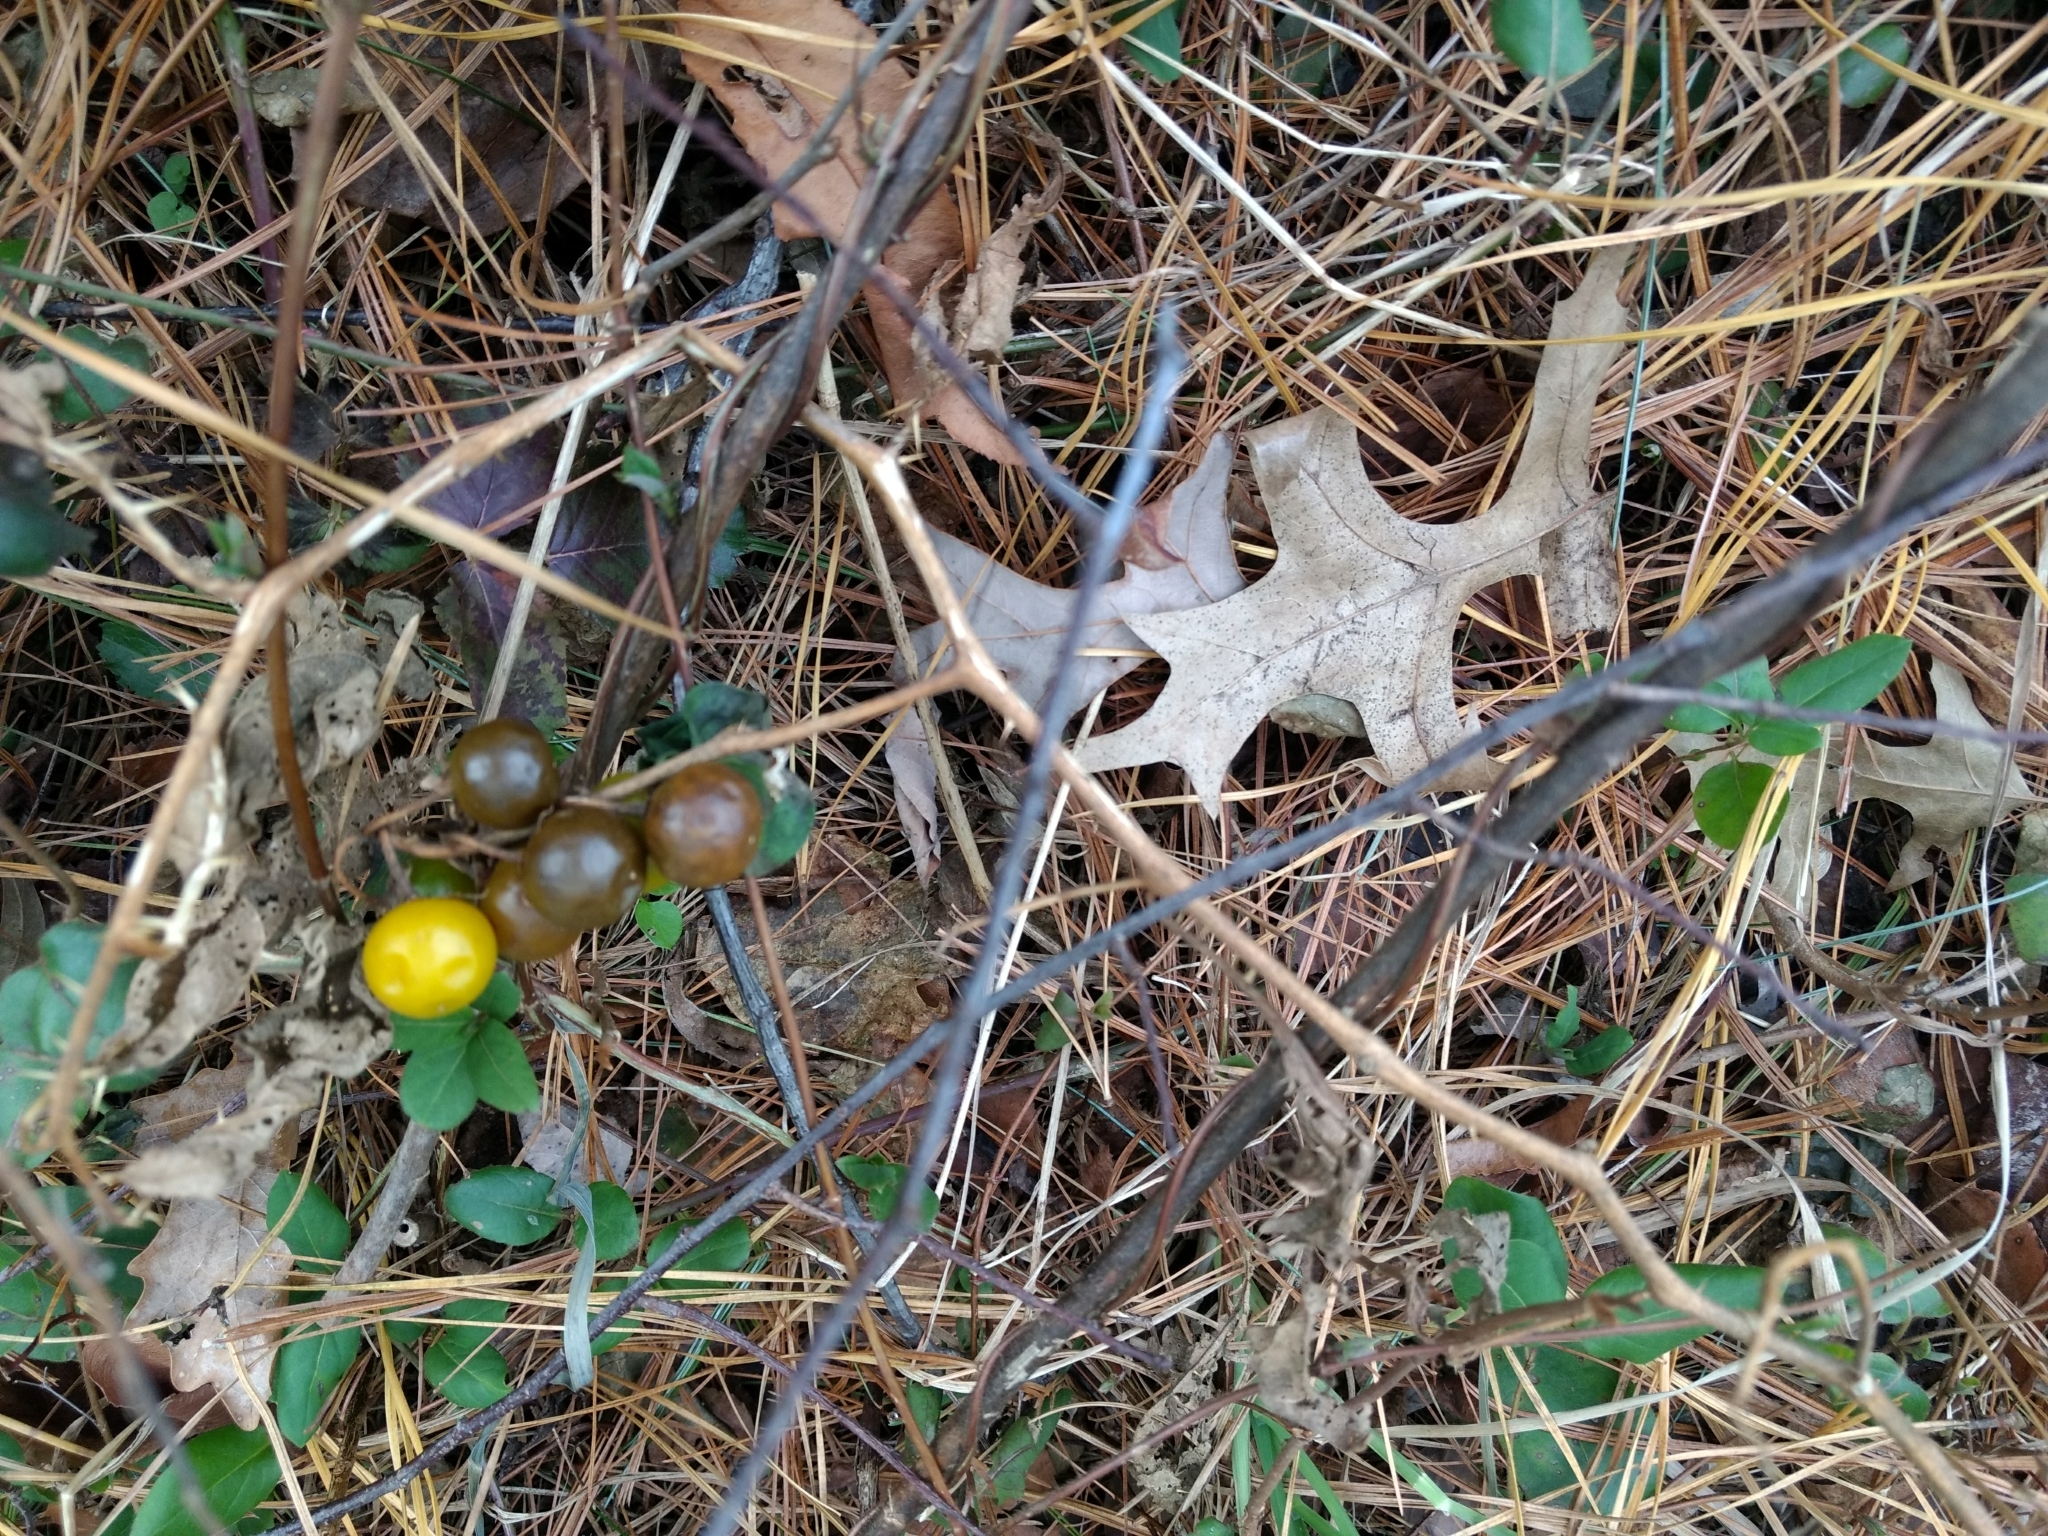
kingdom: Plantae
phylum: Tracheophyta
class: Magnoliopsida
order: Solanales
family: Solanaceae
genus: Solanum
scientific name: Solanum carolinense
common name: Horse-nettle
